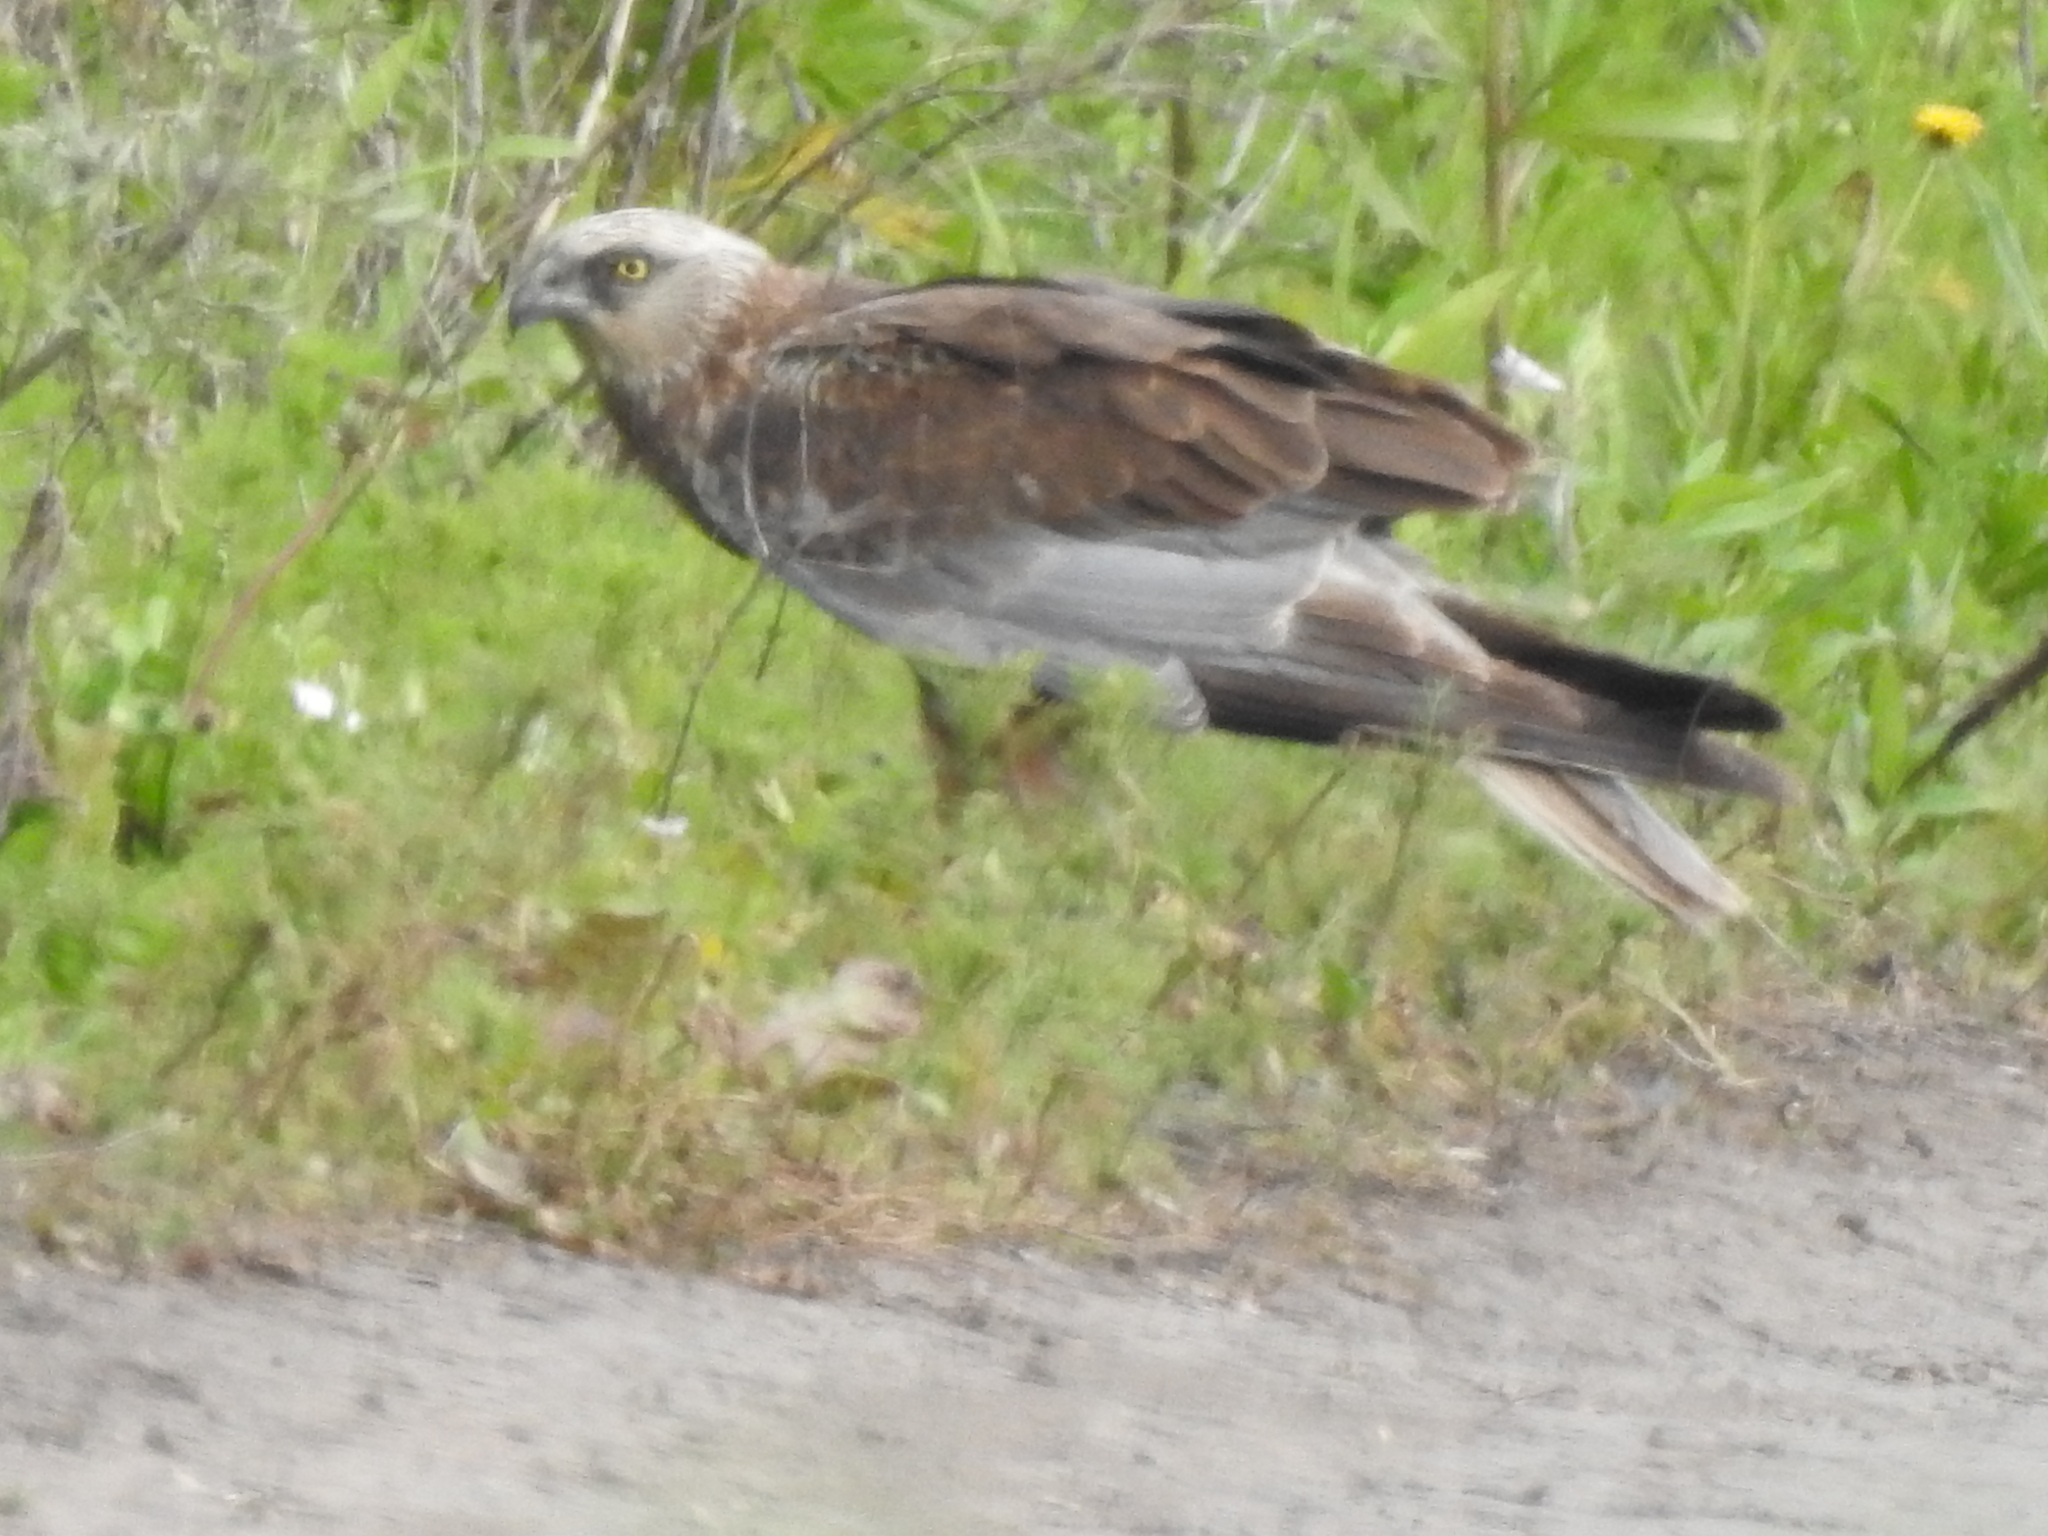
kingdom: Animalia
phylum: Chordata
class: Aves
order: Accipitriformes
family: Accipitridae
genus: Circus
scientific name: Circus aeruginosus
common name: Western marsh harrier
